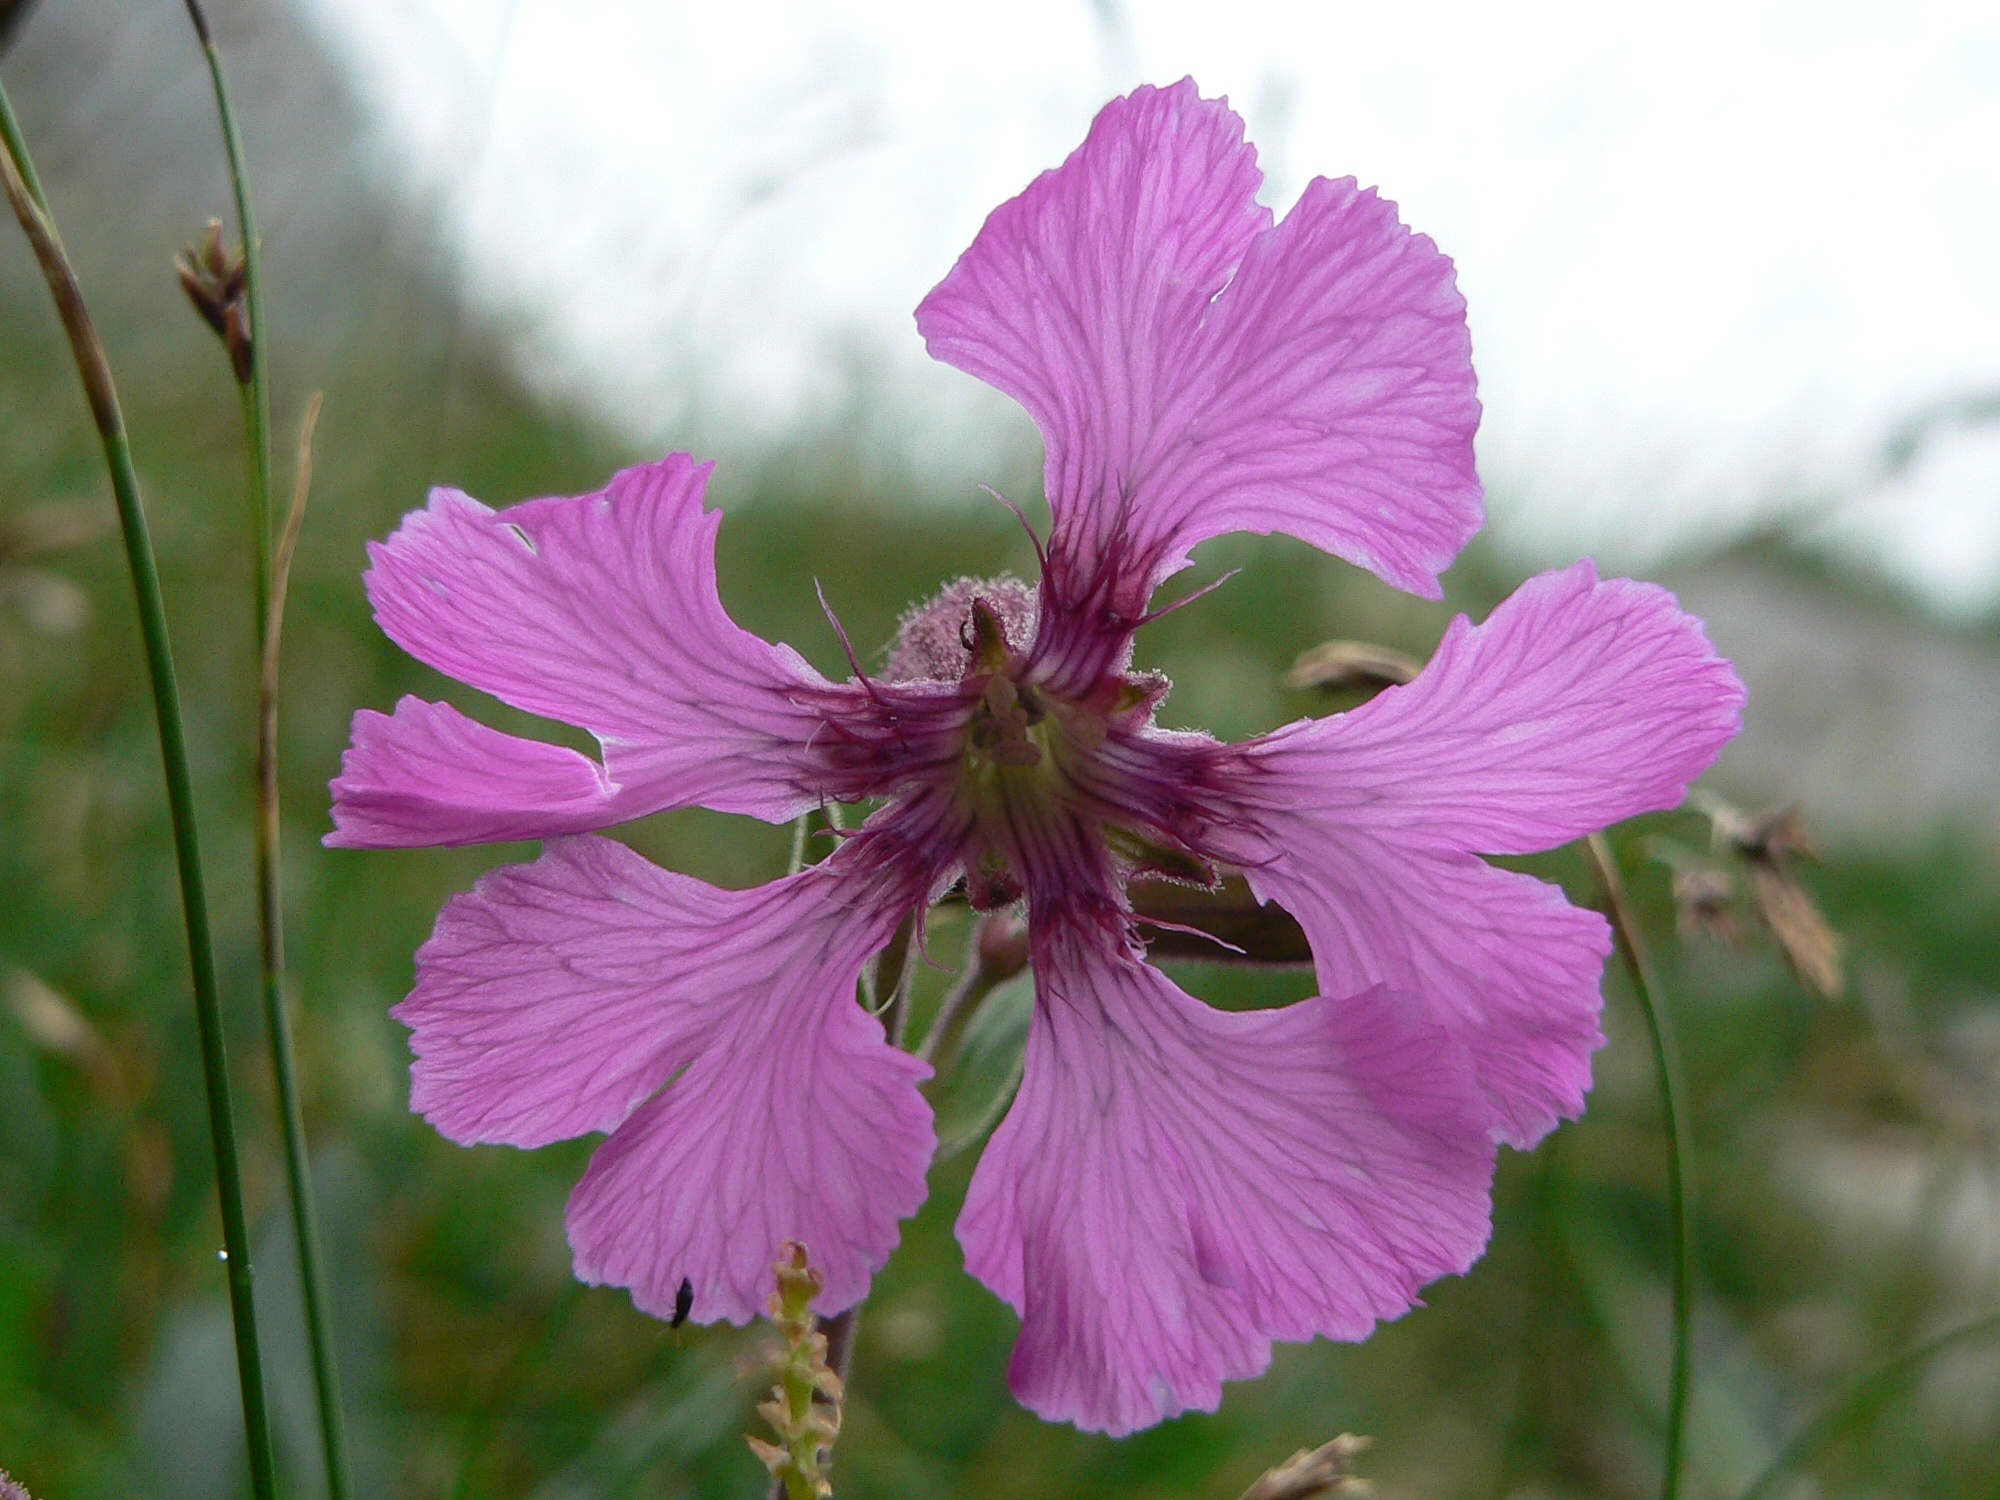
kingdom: Plantae
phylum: Tracheophyta
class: Magnoliopsida
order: Caryophyllales
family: Caryophyllaceae
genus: Silene
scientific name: Silene elisabethae
